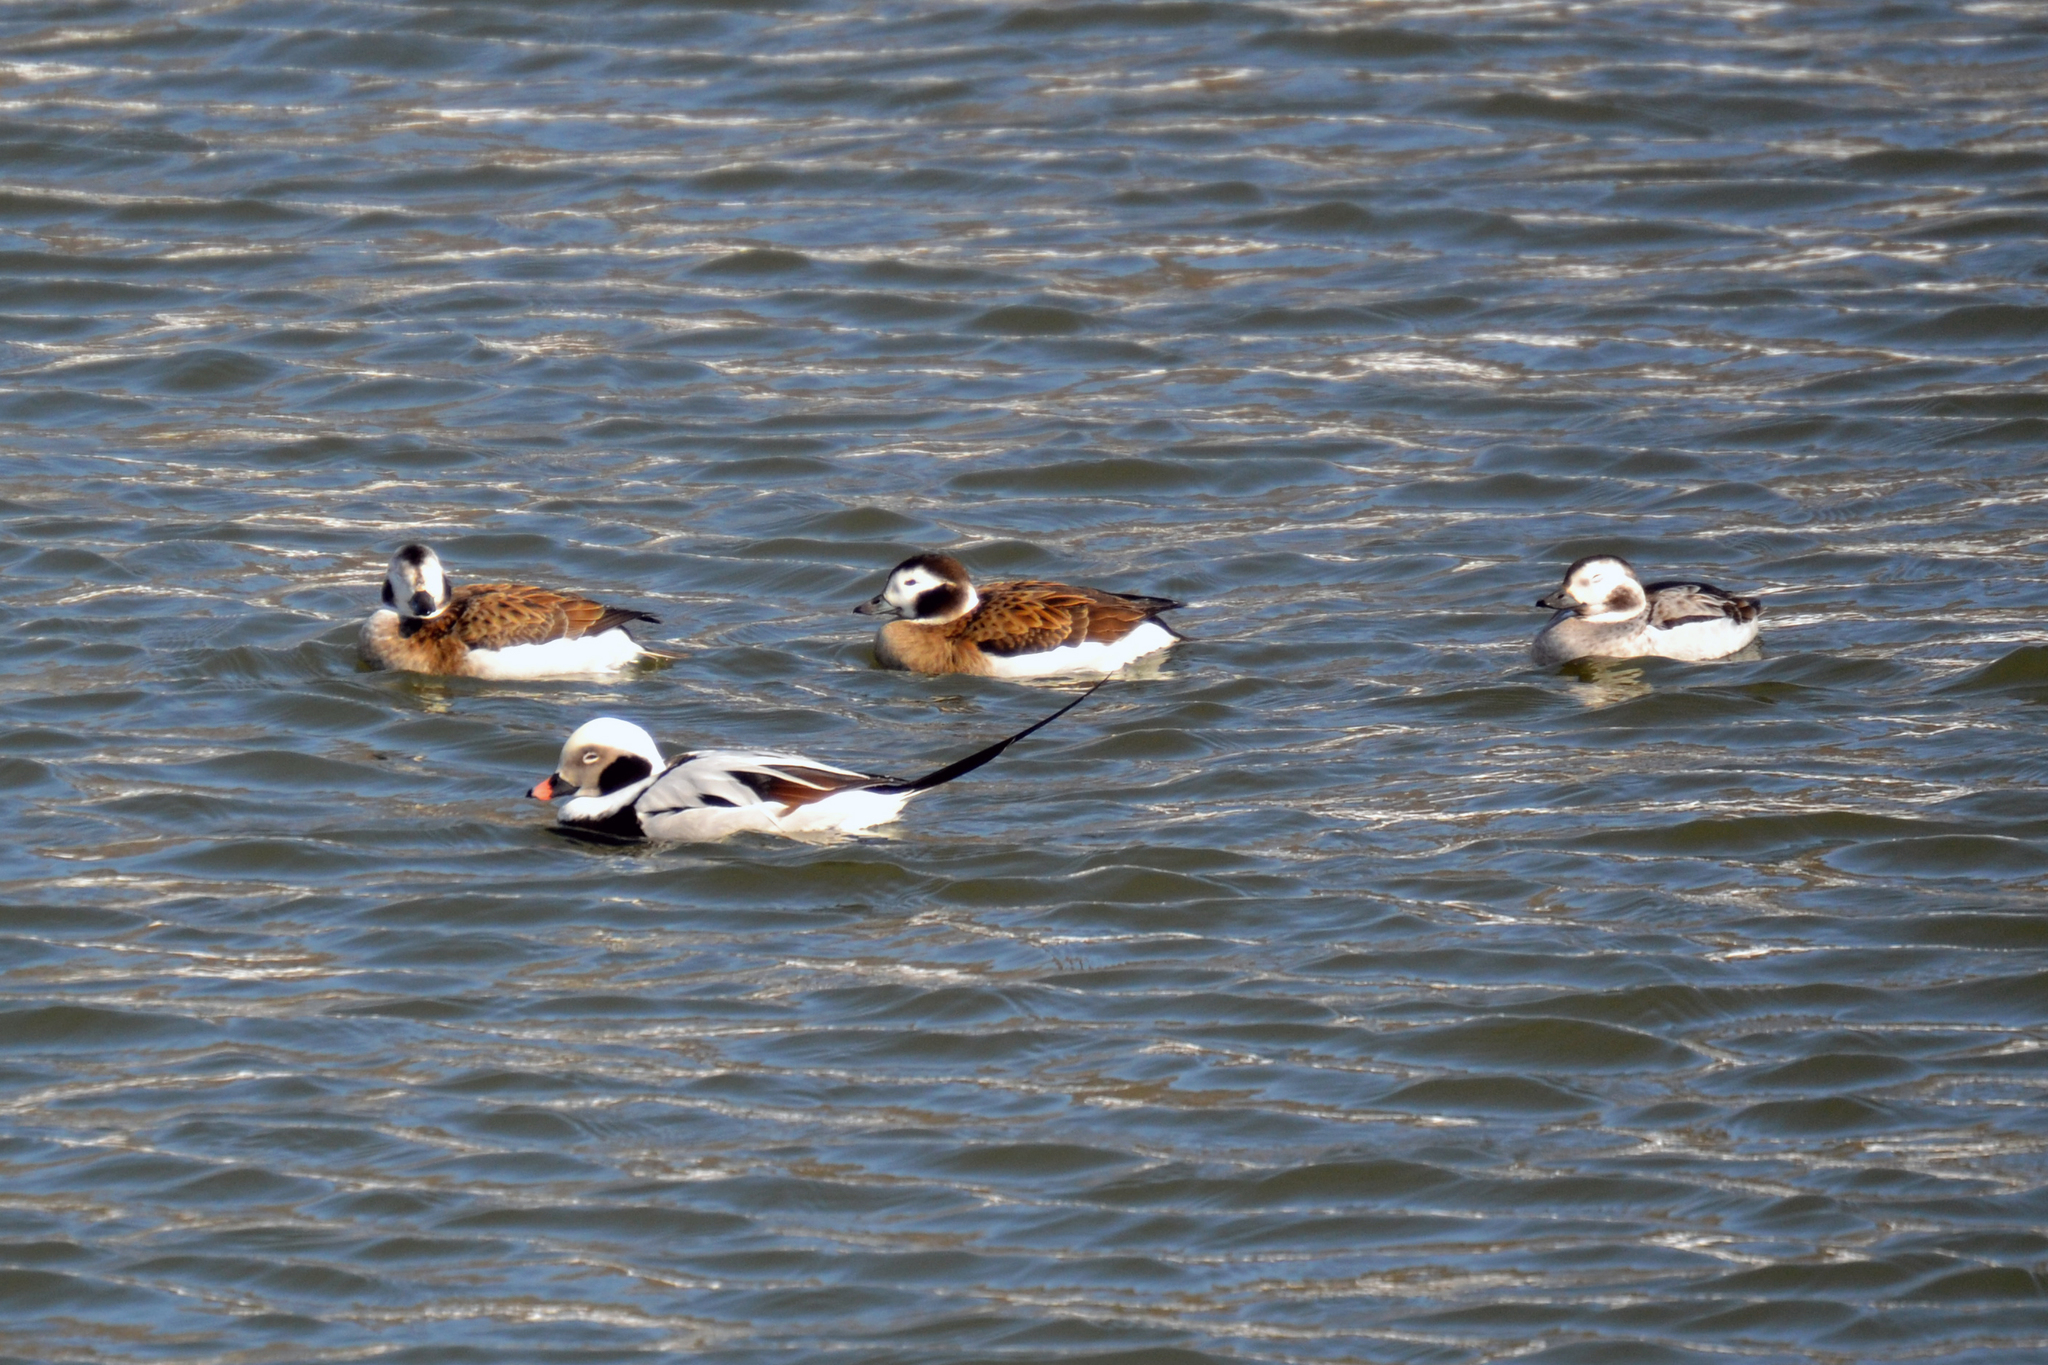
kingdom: Animalia
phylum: Chordata
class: Aves
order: Anseriformes
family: Anatidae
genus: Clangula
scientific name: Clangula hyemalis
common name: Long-tailed duck
